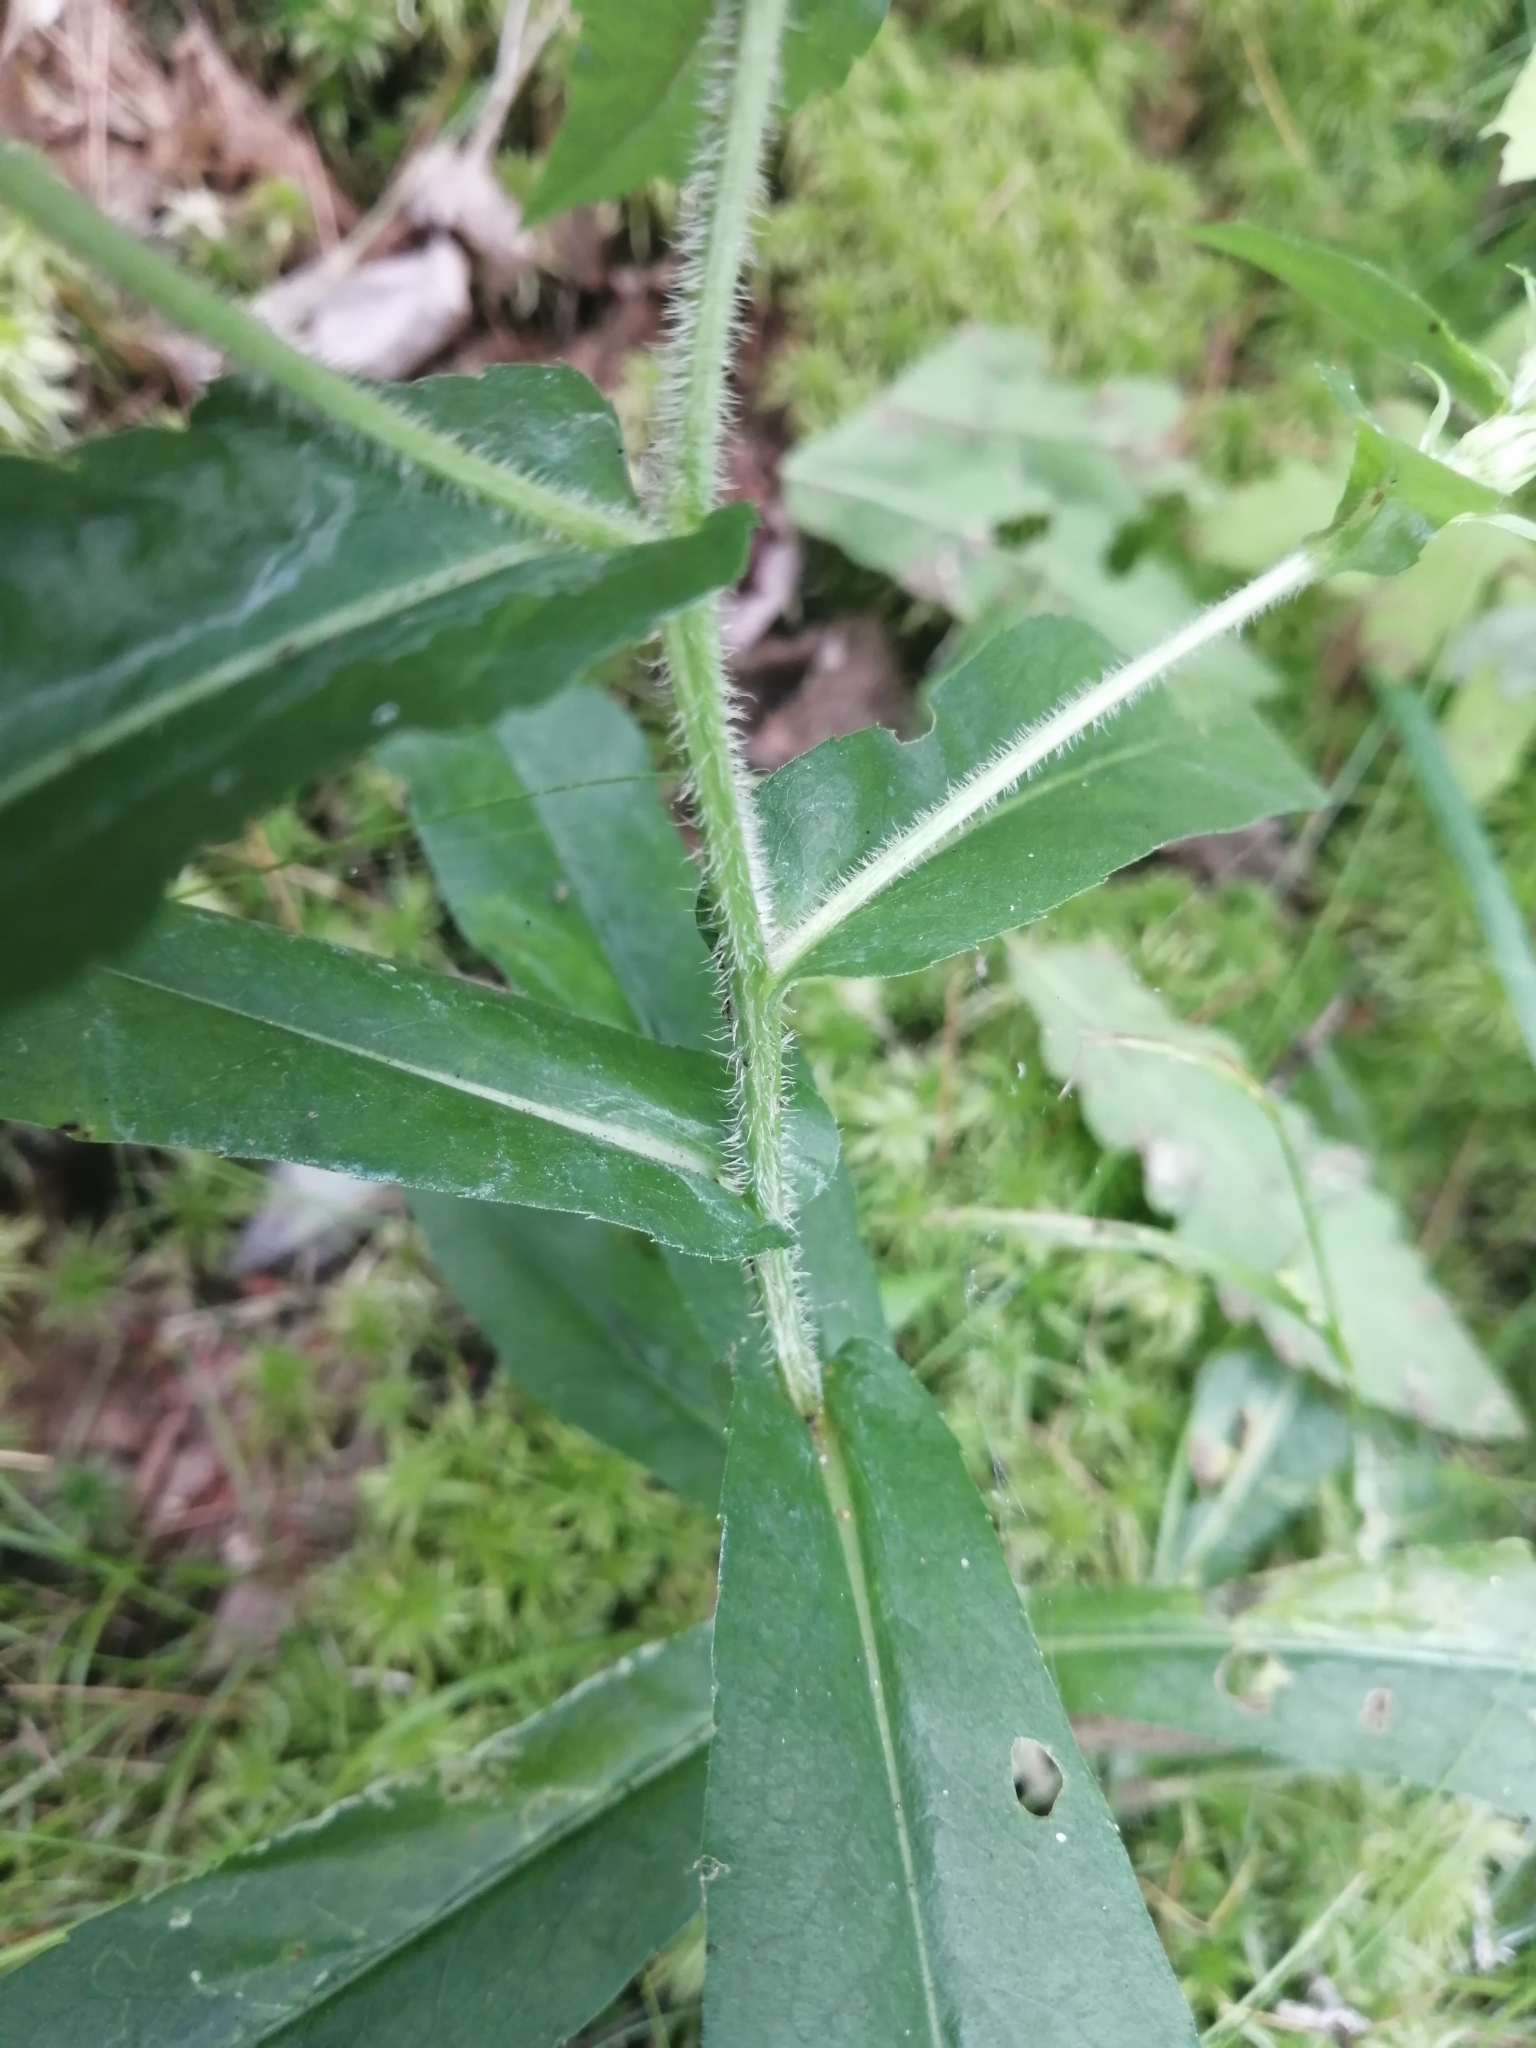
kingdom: Plantae
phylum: Tracheophyta
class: Magnoliopsida
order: Asterales
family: Asteraceae
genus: Symphyotrichum
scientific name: Symphyotrichum puniceum
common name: Bog aster
